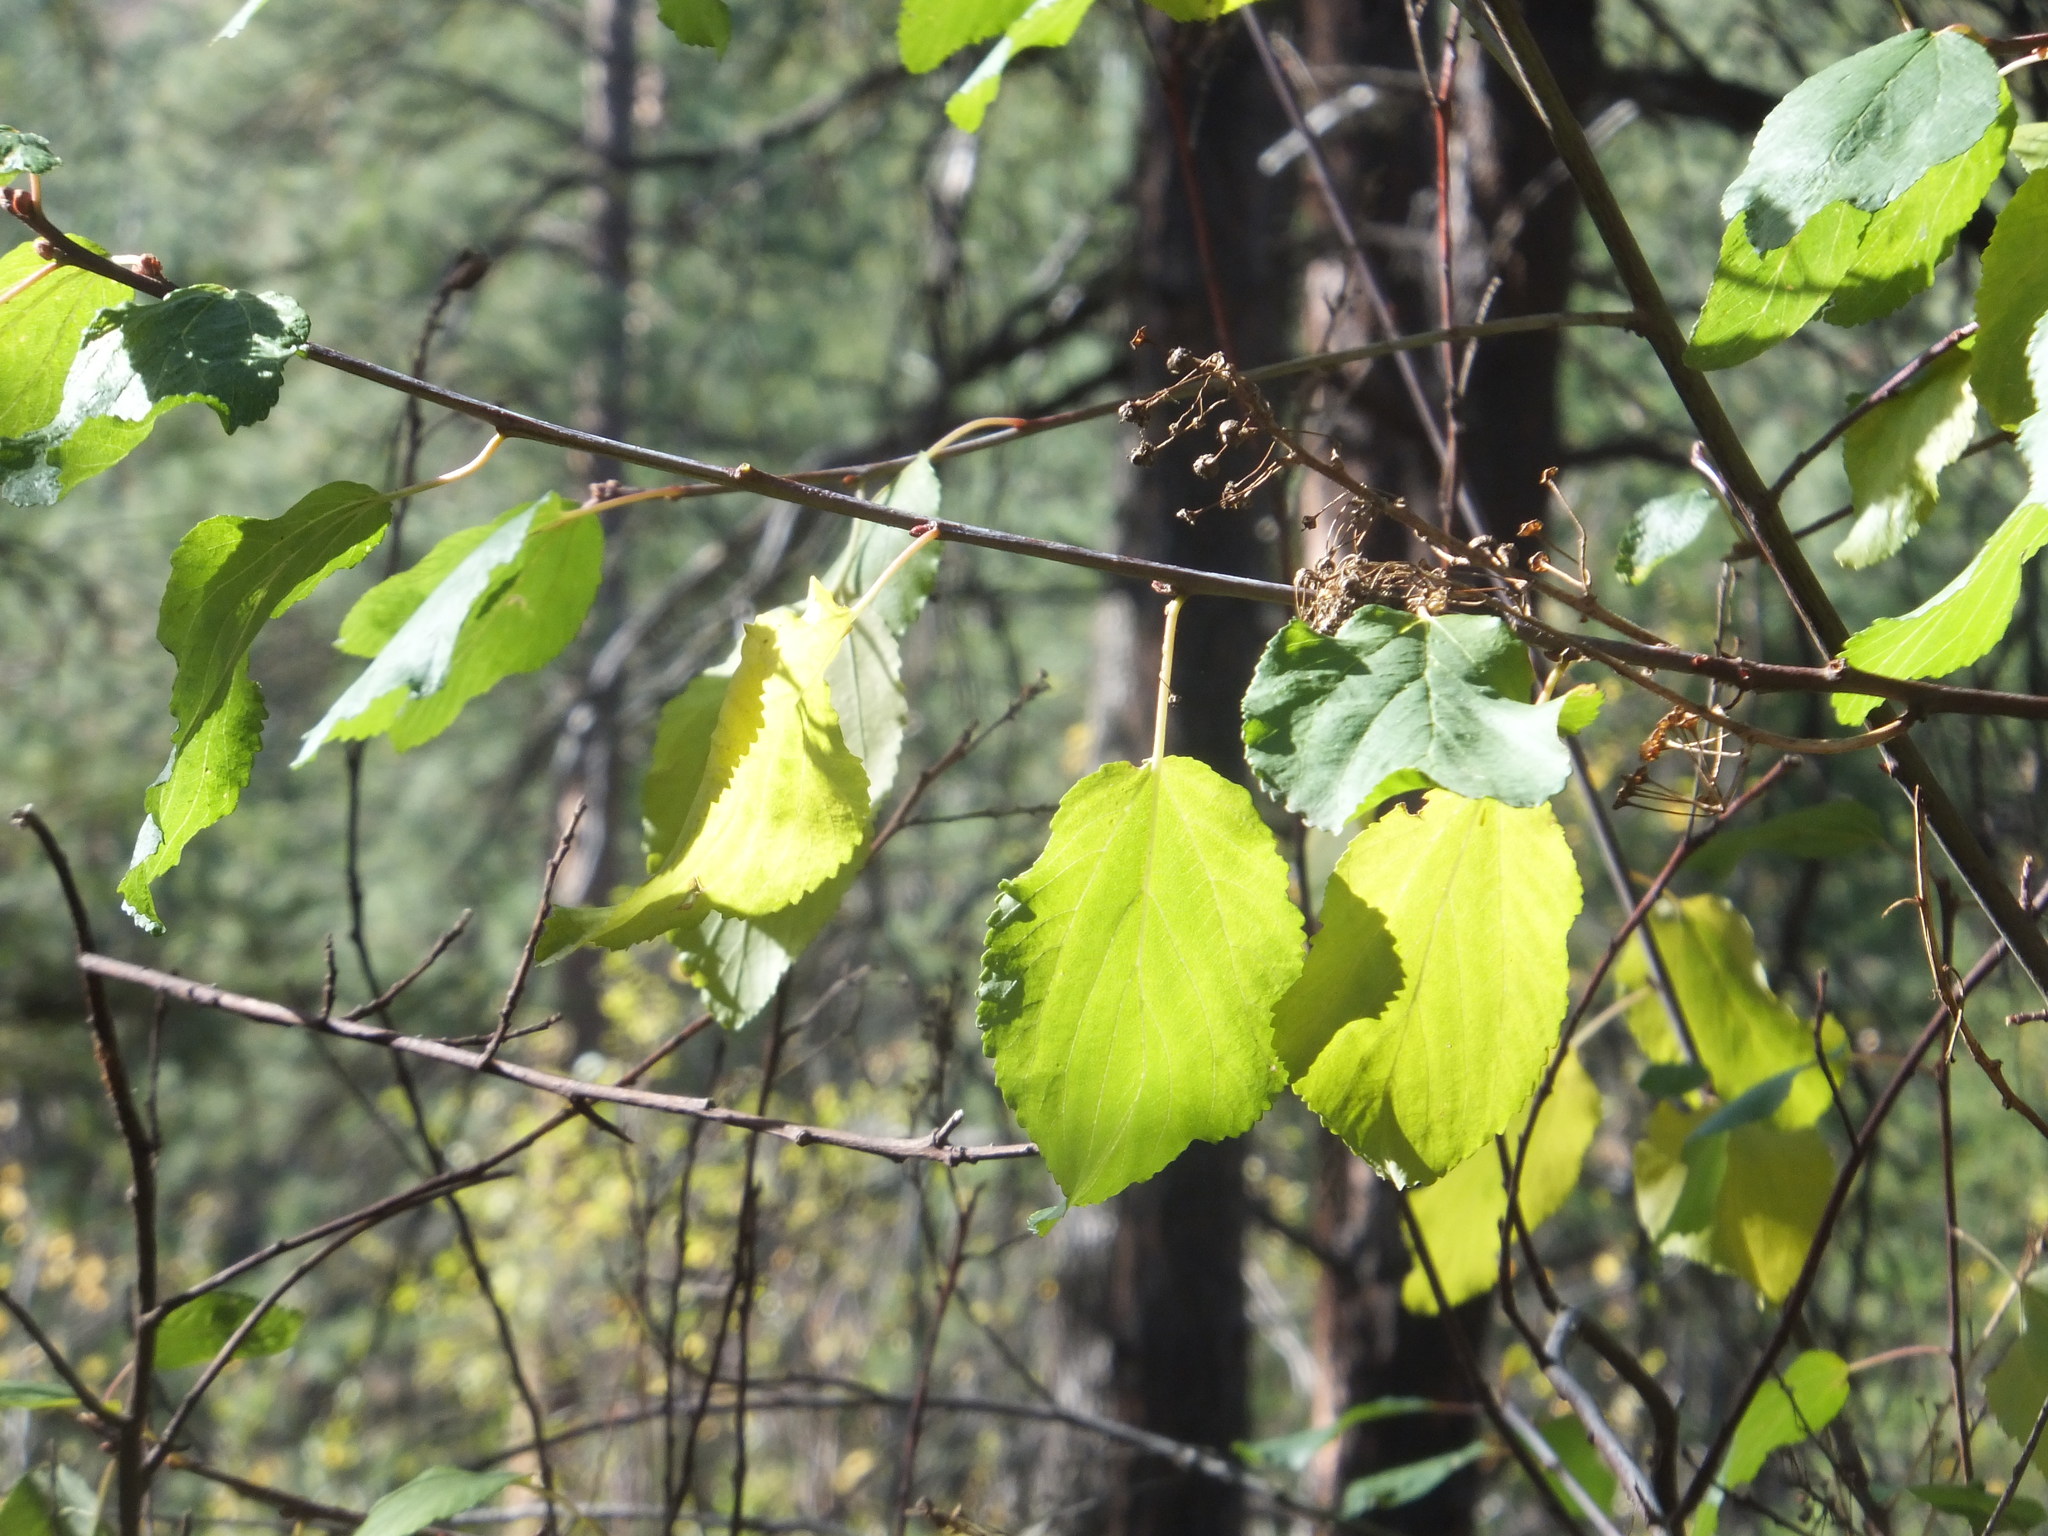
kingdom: Plantae
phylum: Tracheophyta
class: Magnoliopsida
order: Rosales
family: Rhamnaceae
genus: Ceanothus
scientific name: Ceanothus sanguineus
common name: Teatree
